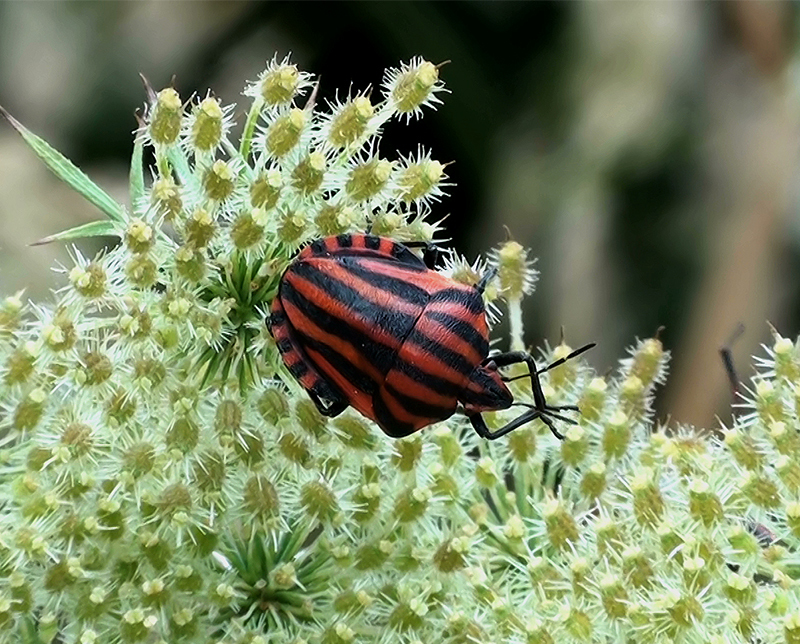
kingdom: Animalia
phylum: Arthropoda
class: Insecta
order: Hemiptera
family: Pentatomidae
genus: Graphosoma
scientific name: Graphosoma italicum
